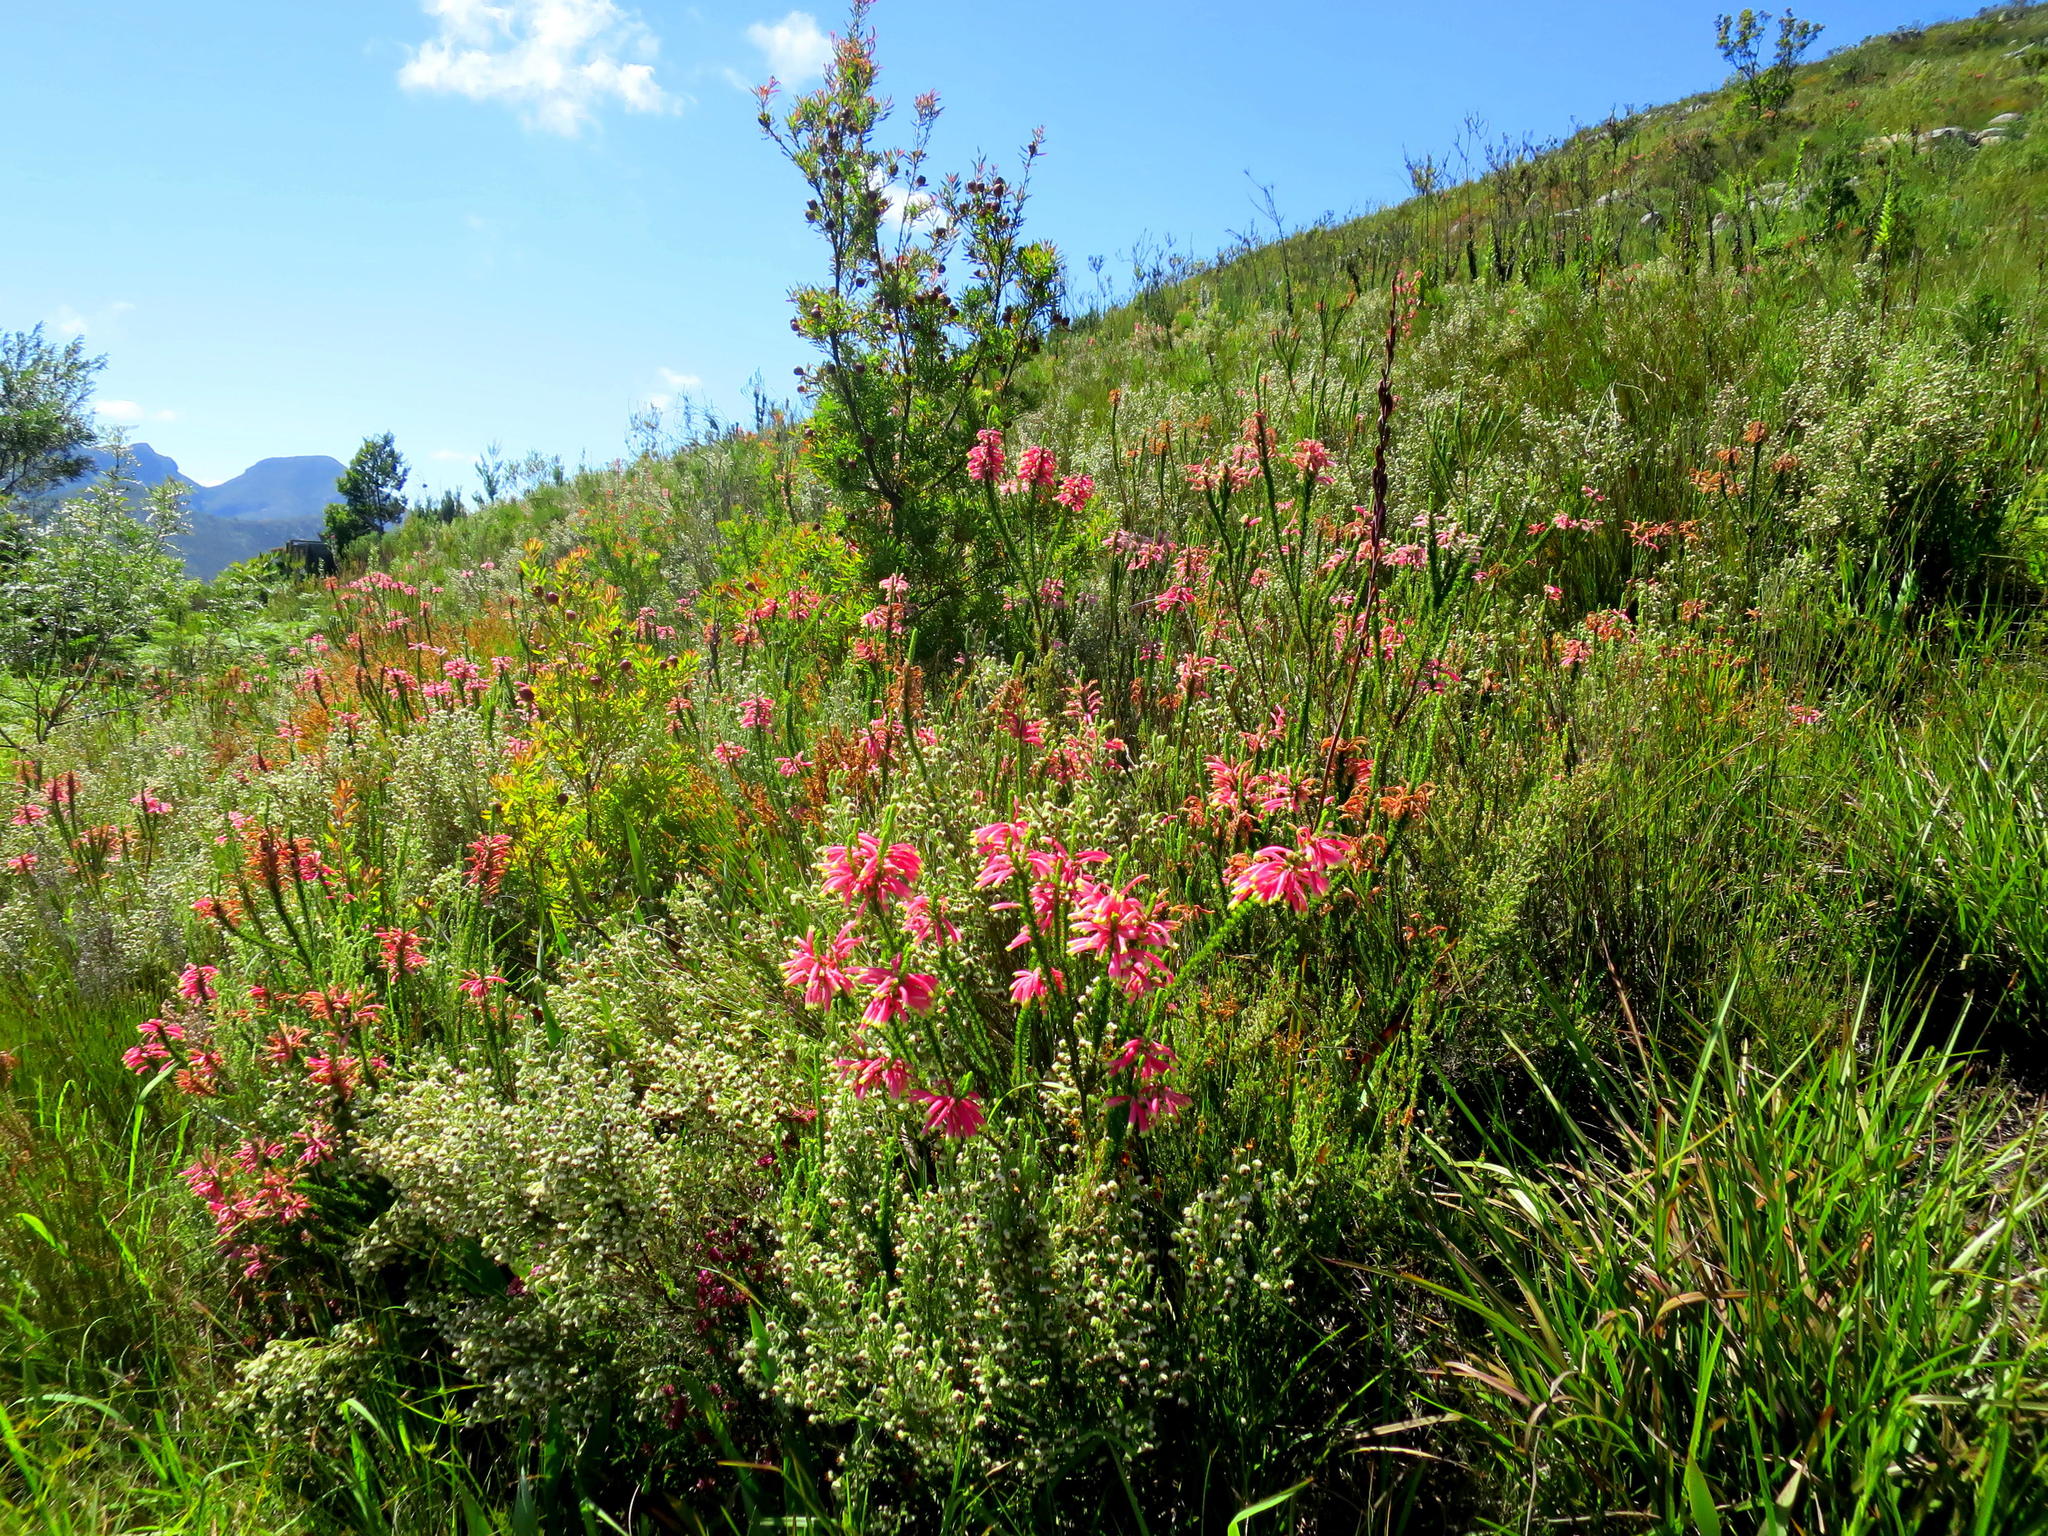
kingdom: Plantae
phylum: Tracheophyta
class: Magnoliopsida
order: Ericales
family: Ericaceae
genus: Erica
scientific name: Erica densifolia
